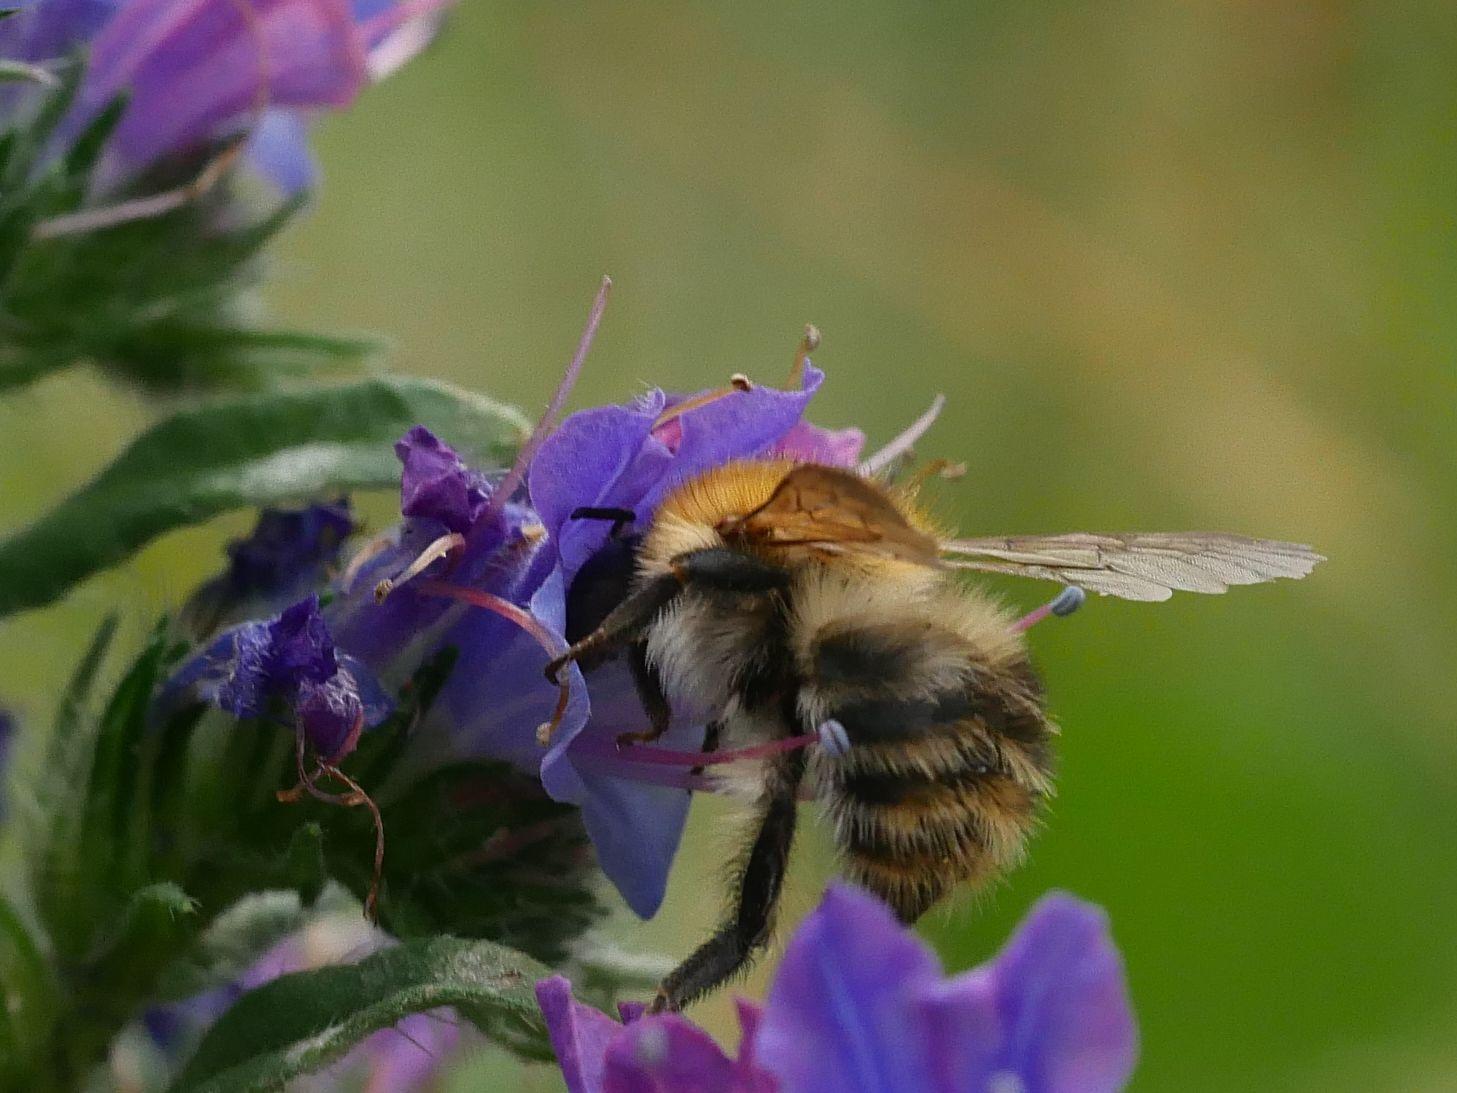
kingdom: Animalia
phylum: Arthropoda
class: Insecta
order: Hymenoptera
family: Apidae
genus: Bombus
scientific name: Bombus pascuorum
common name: Common carder bee
